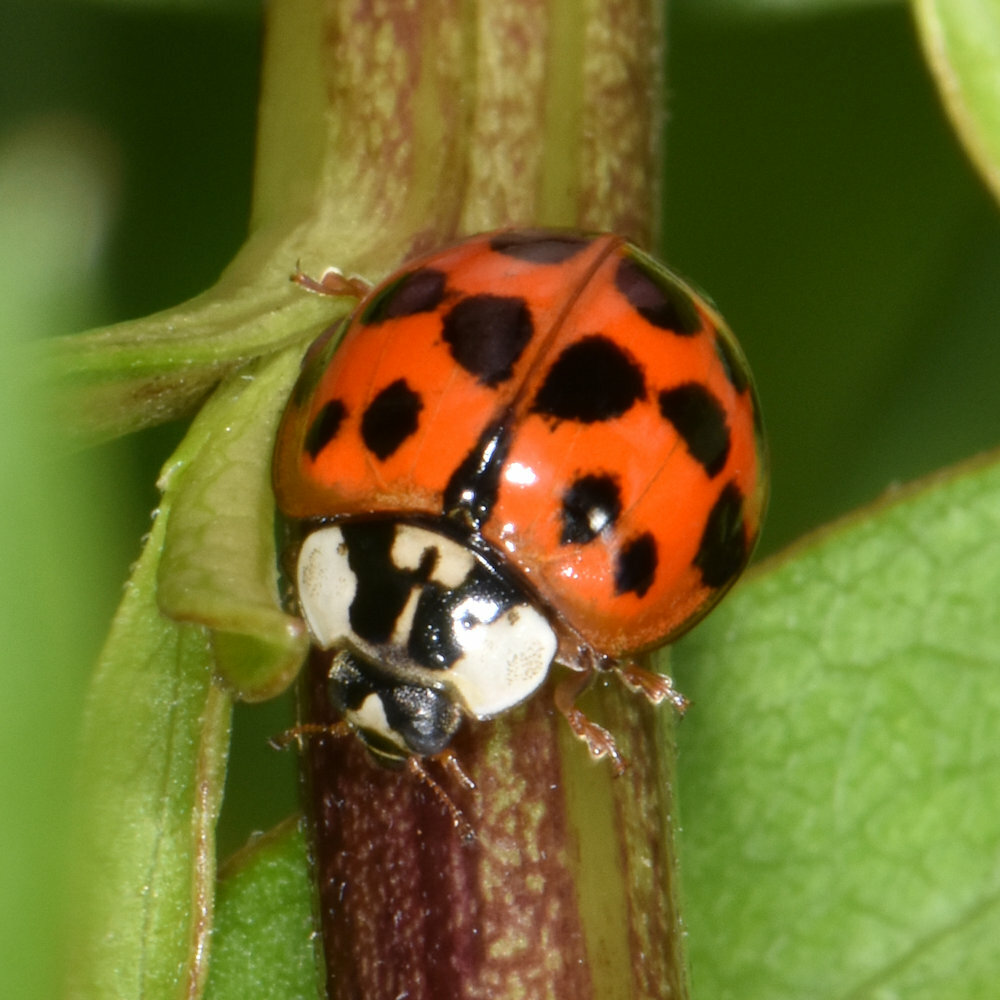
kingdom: Animalia
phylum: Arthropoda
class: Insecta
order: Coleoptera
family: Coccinellidae
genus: Harmonia
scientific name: Harmonia axyridis
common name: Harlequin ladybird
